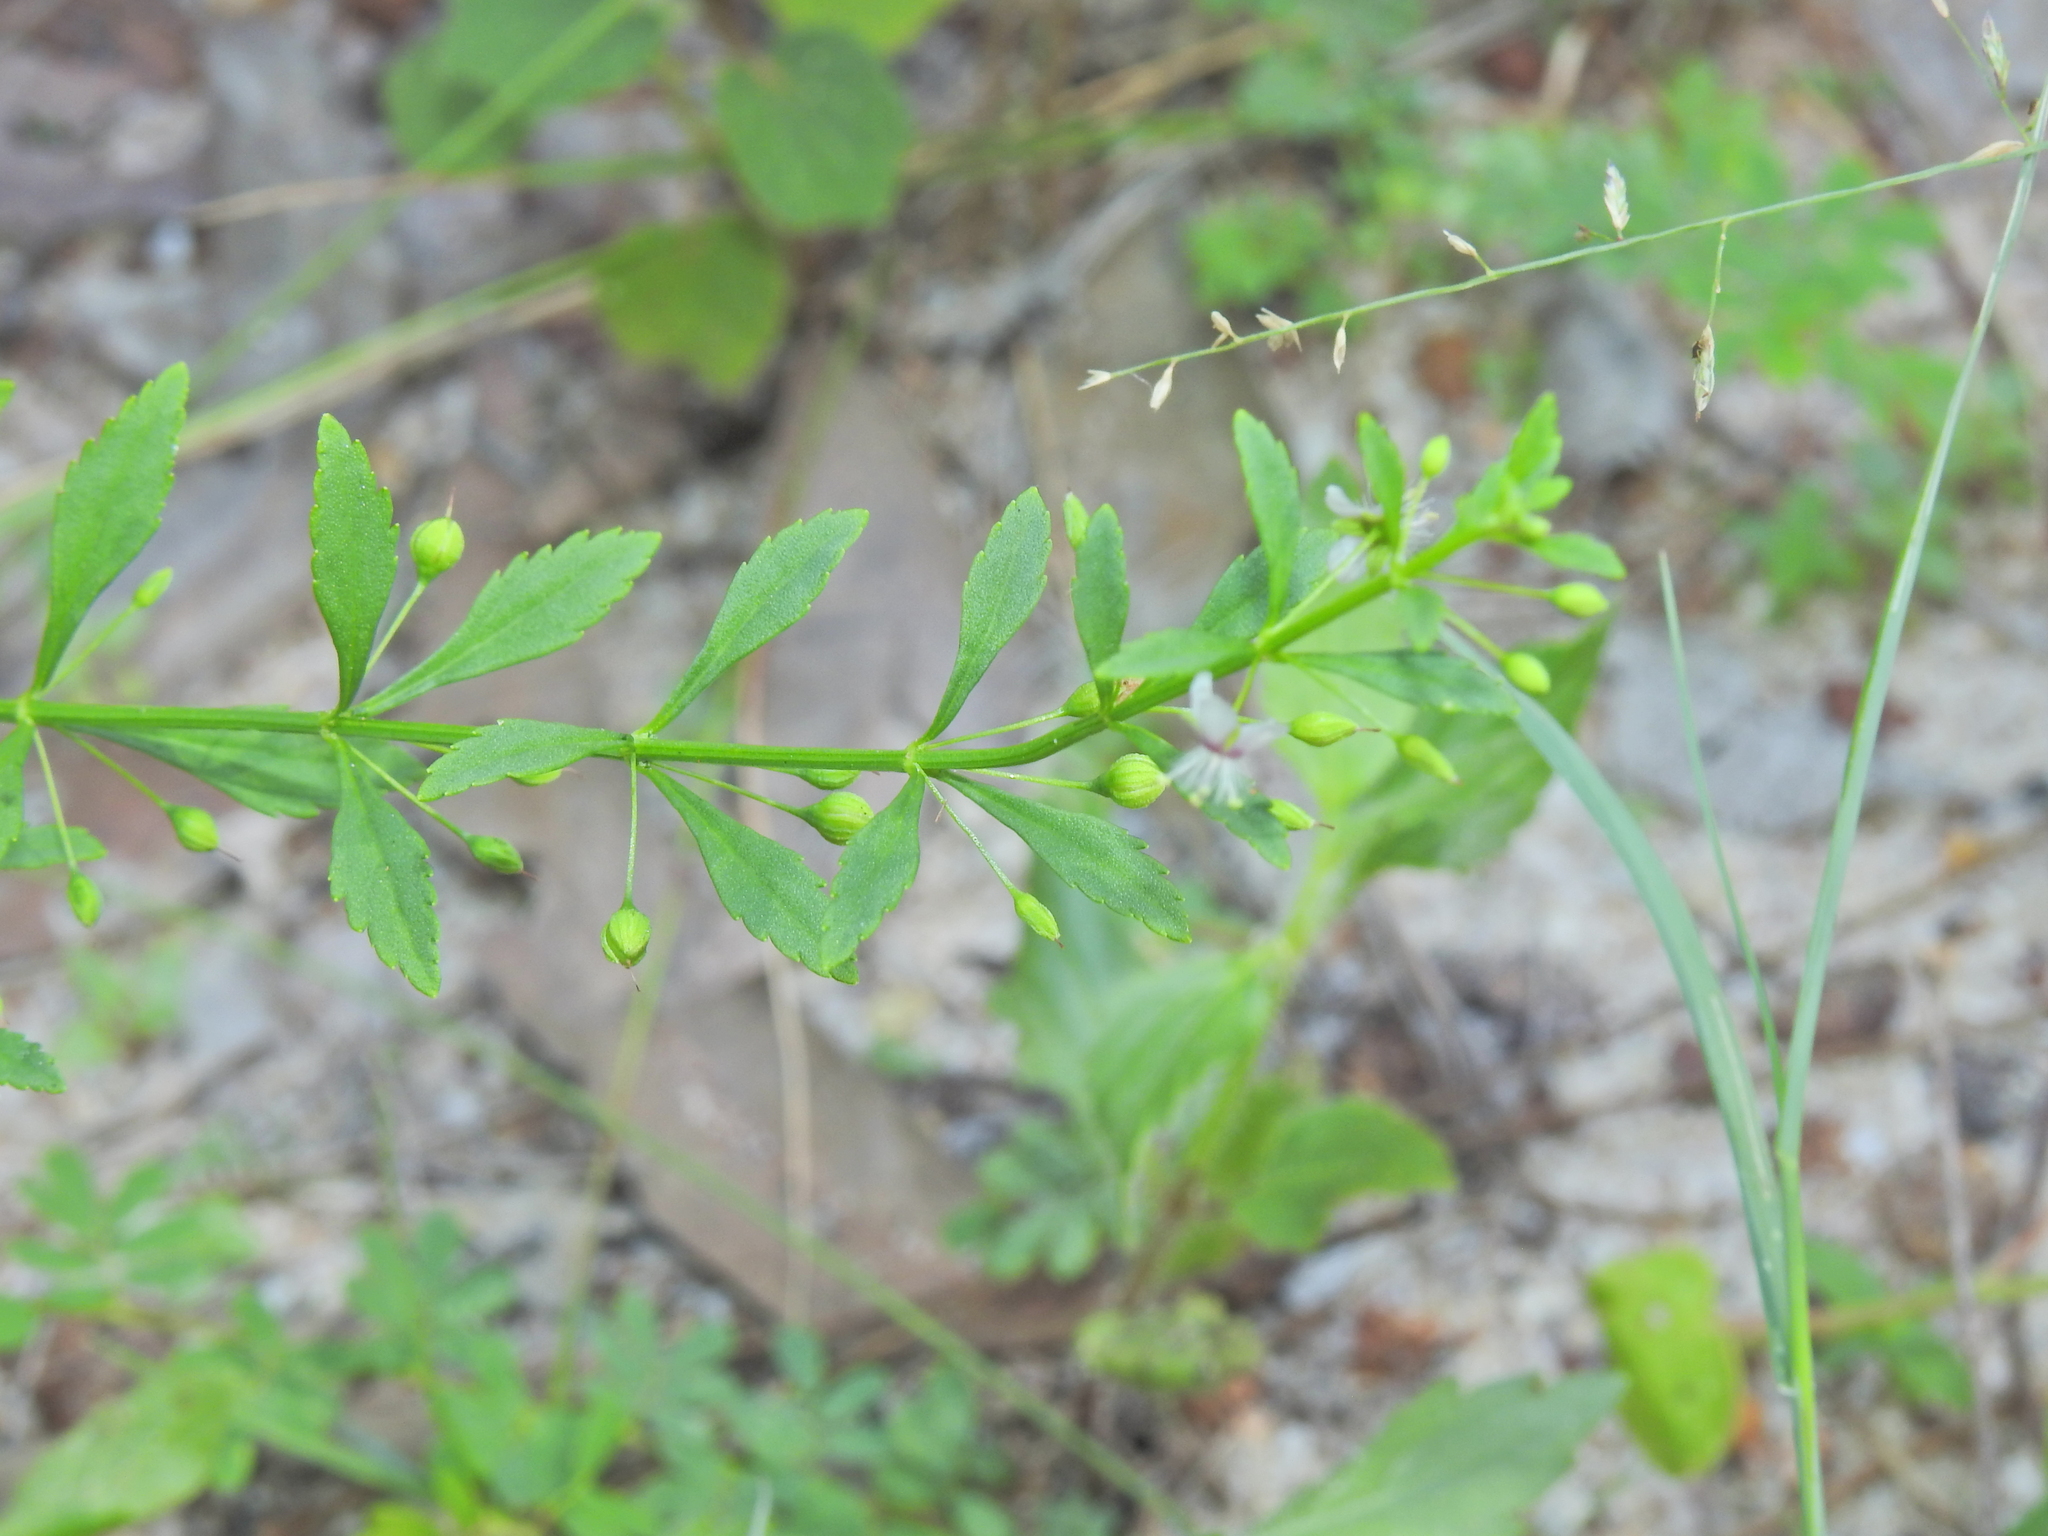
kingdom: Plantae
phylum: Tracheophyta
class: Magnoliopsida
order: Lamiales
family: Plantaginaceae
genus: Scoparia
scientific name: Scoparia dulcis
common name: Scoparia-weed
